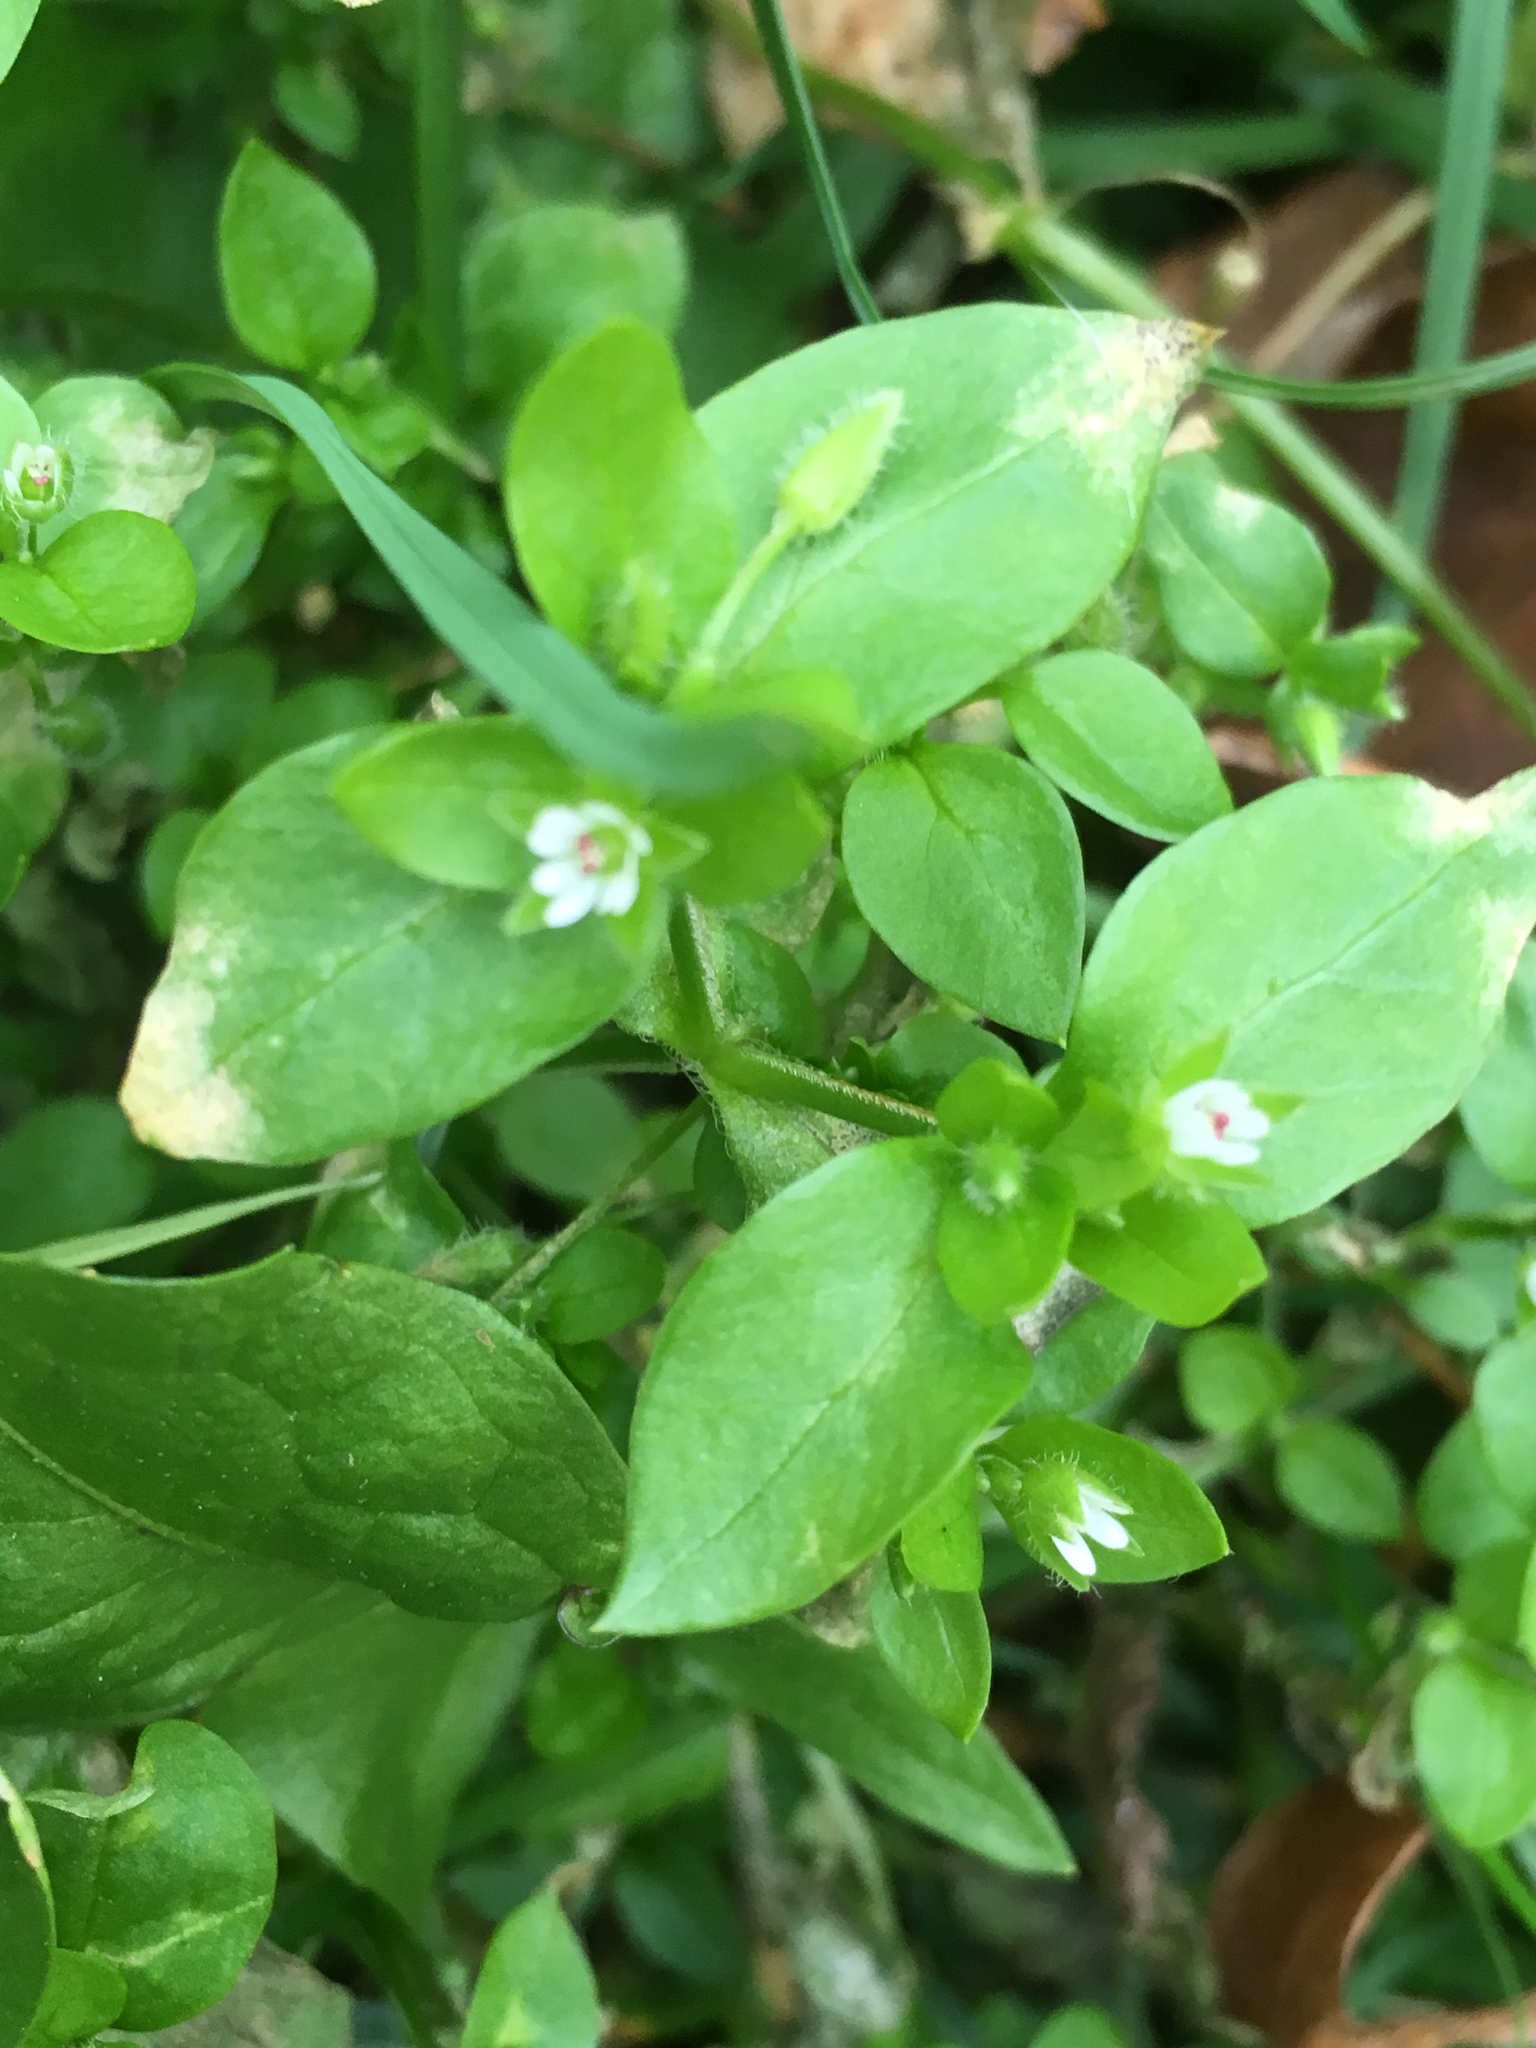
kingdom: Plantae
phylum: Tracheophyta
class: Magnoliopsida
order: Caryophyllales
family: Caryophyllaceae
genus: Stellaria
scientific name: Stellaria media
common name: Common chickweed
